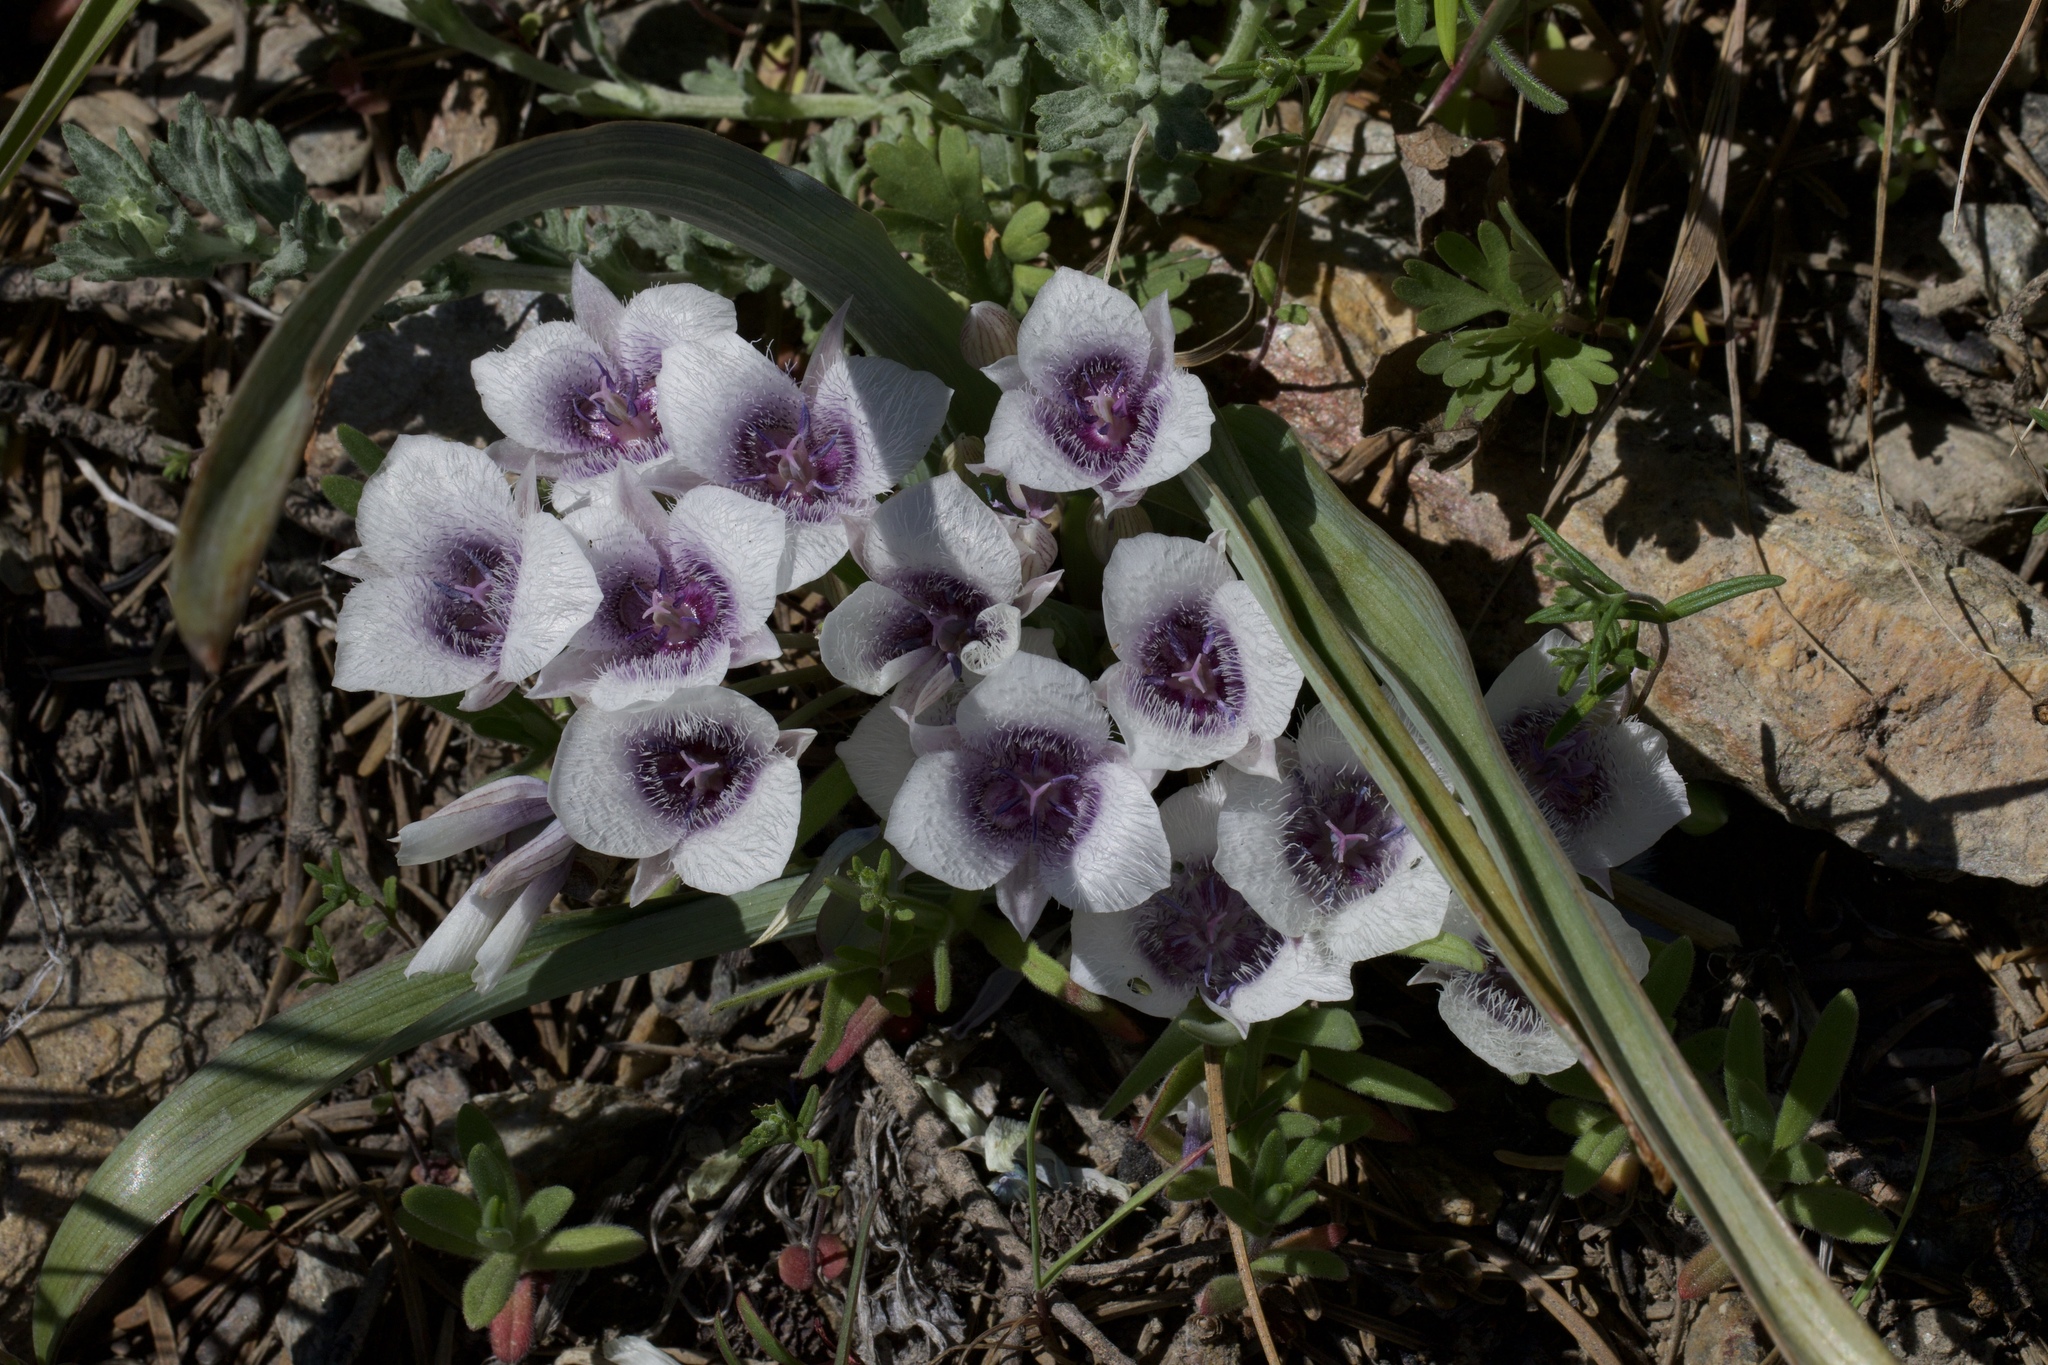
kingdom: Plantae
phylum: Tracheophyta
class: Liliopsida
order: Liliales
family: Liliaceae
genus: Calochortus
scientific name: Calochortus tolmiei
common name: Pussy-ears
